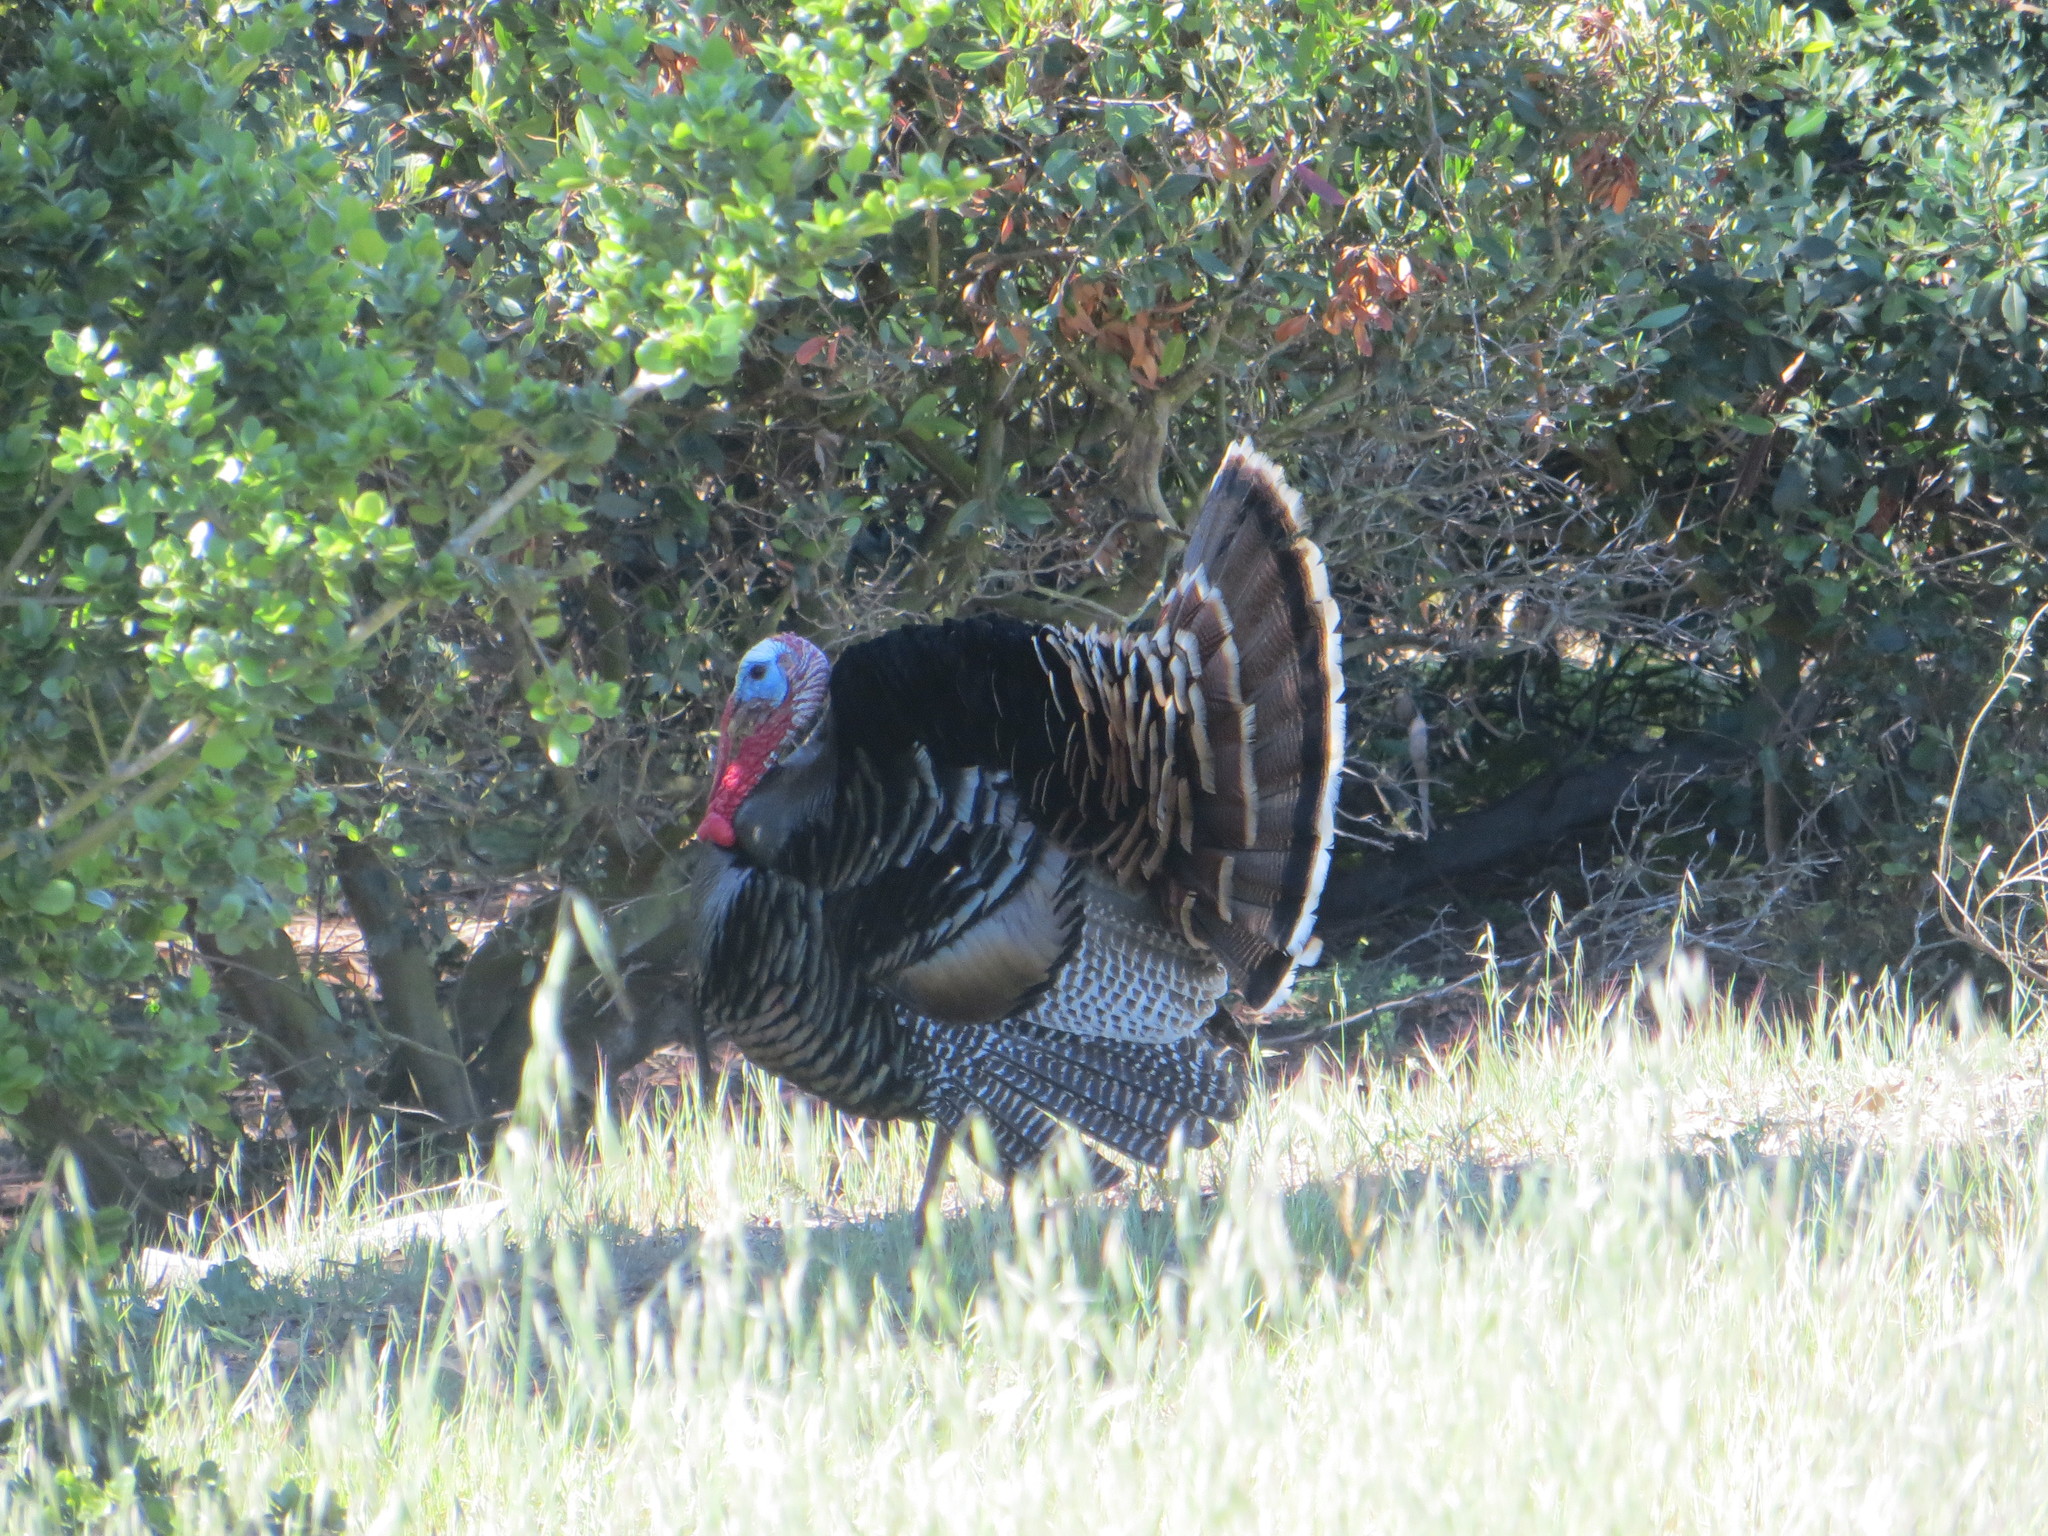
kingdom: Animalia
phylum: Chordata
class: Aves
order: Galliformes
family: Phasianidae
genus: Meleagris
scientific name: Meleagris gallopavo
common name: Wild turkey
